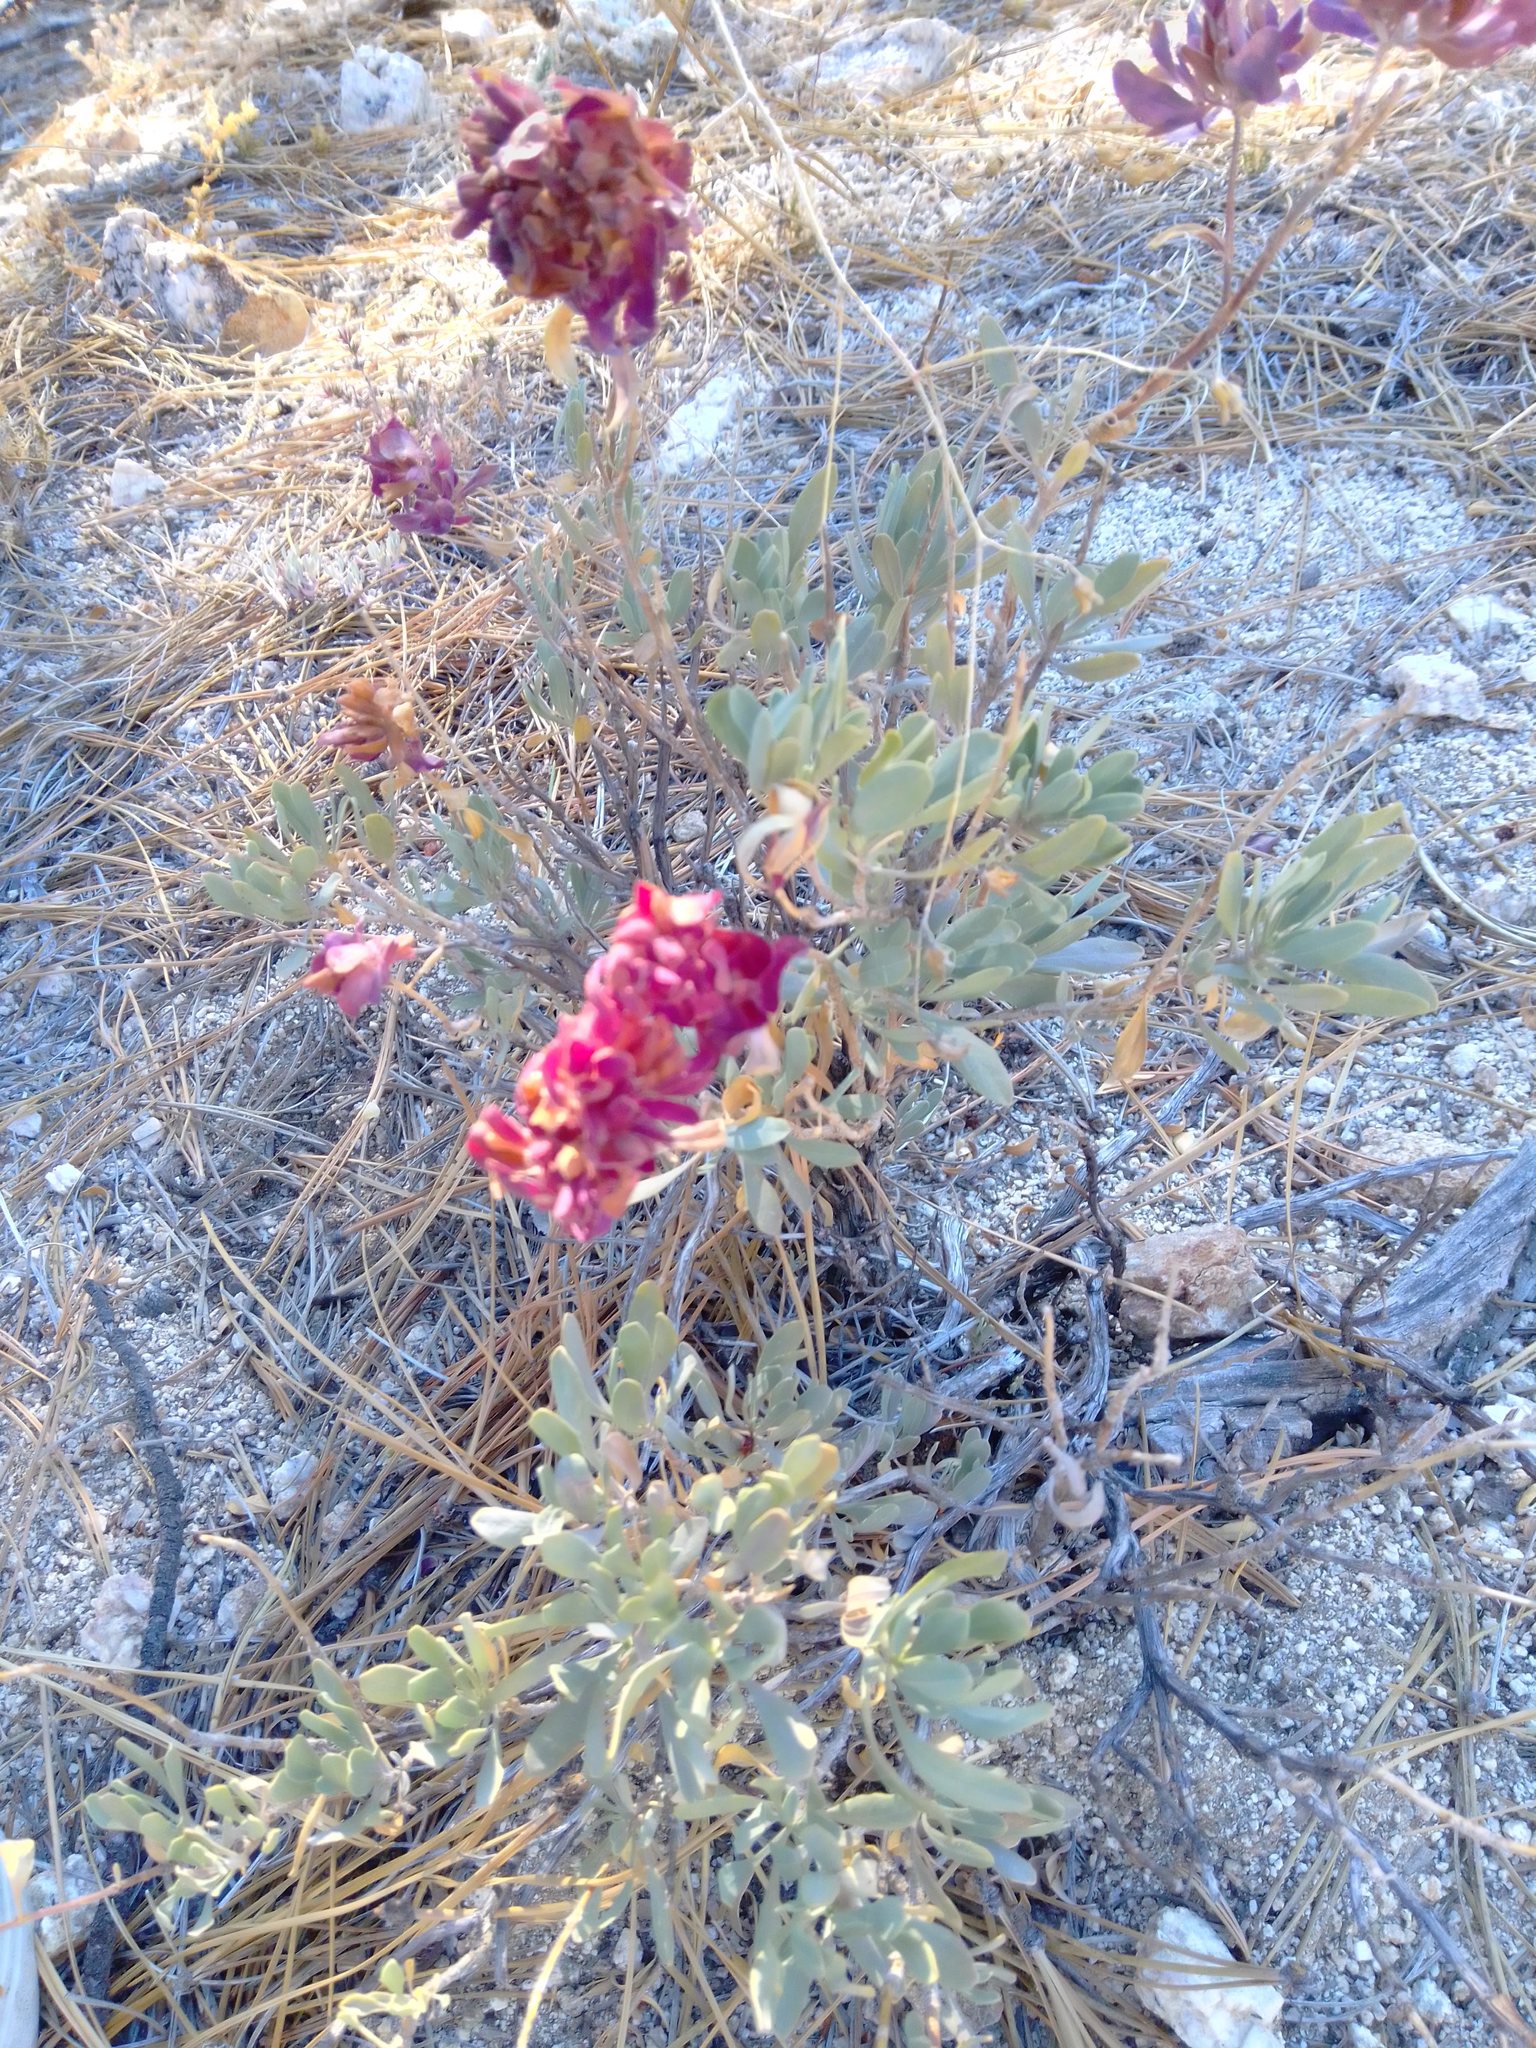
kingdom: Plantae
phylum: Tracheophyta
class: Magnoliopsida
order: Lamiales
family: Lamiaceae
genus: Salvia
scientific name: Salvia pachyphylla
